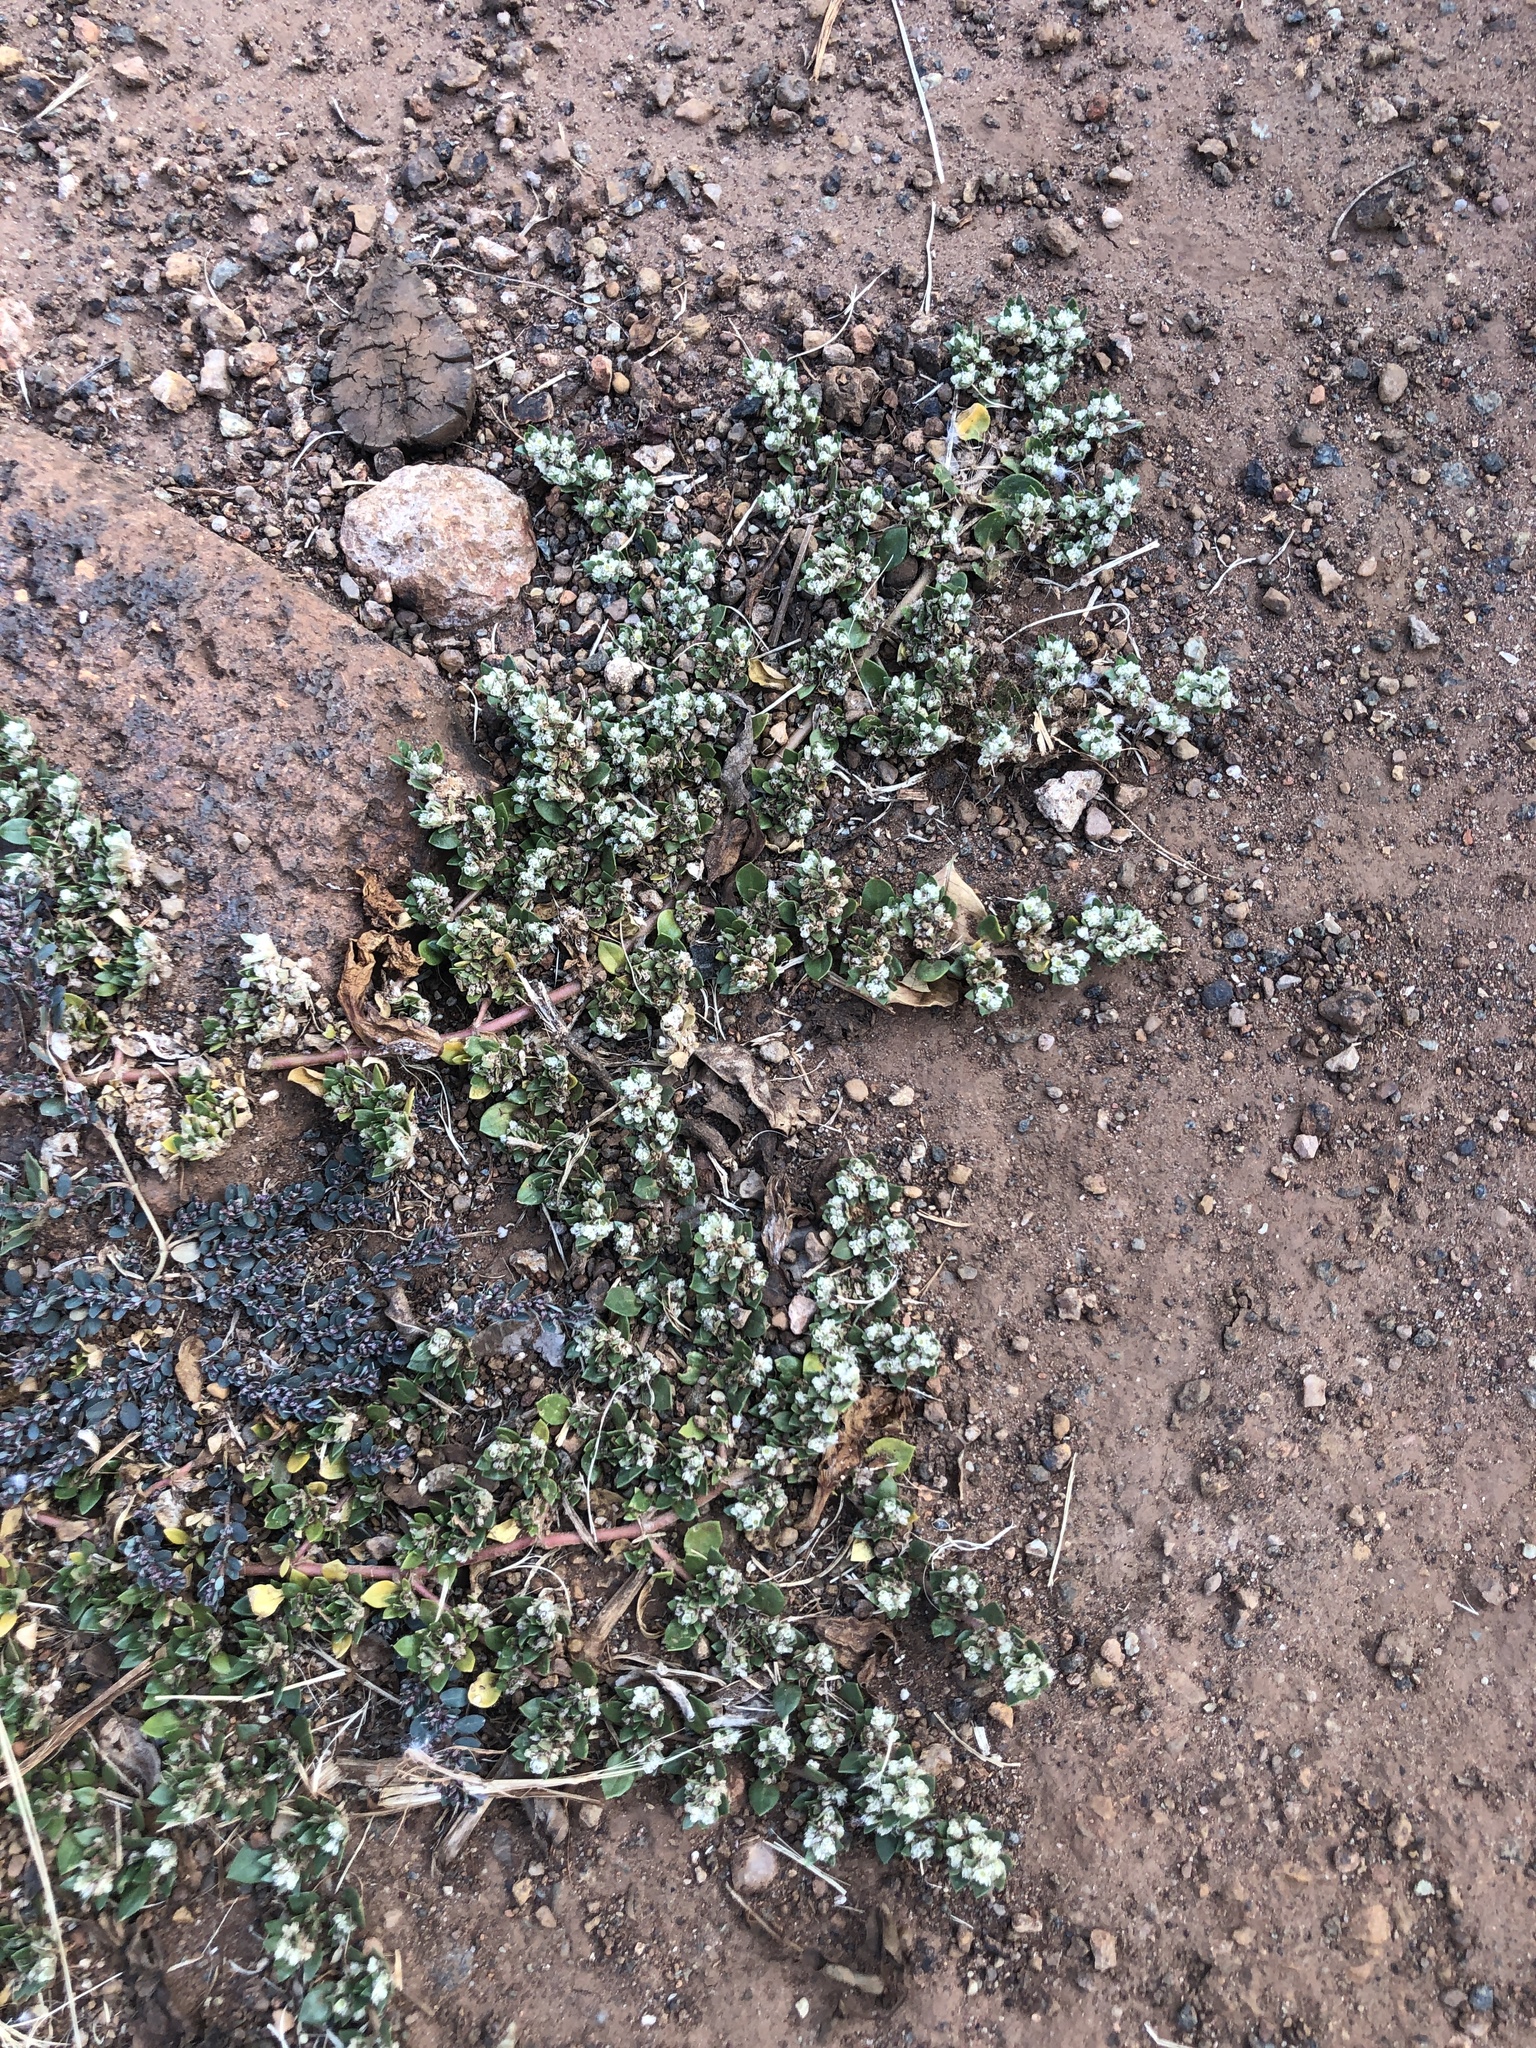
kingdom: Plantae
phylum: Tracheophyta
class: Magnoliopsida
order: Caryophyllales
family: Amaranthaceae
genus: Guilleminea
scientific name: Guilleminea densa
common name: Small matweed
